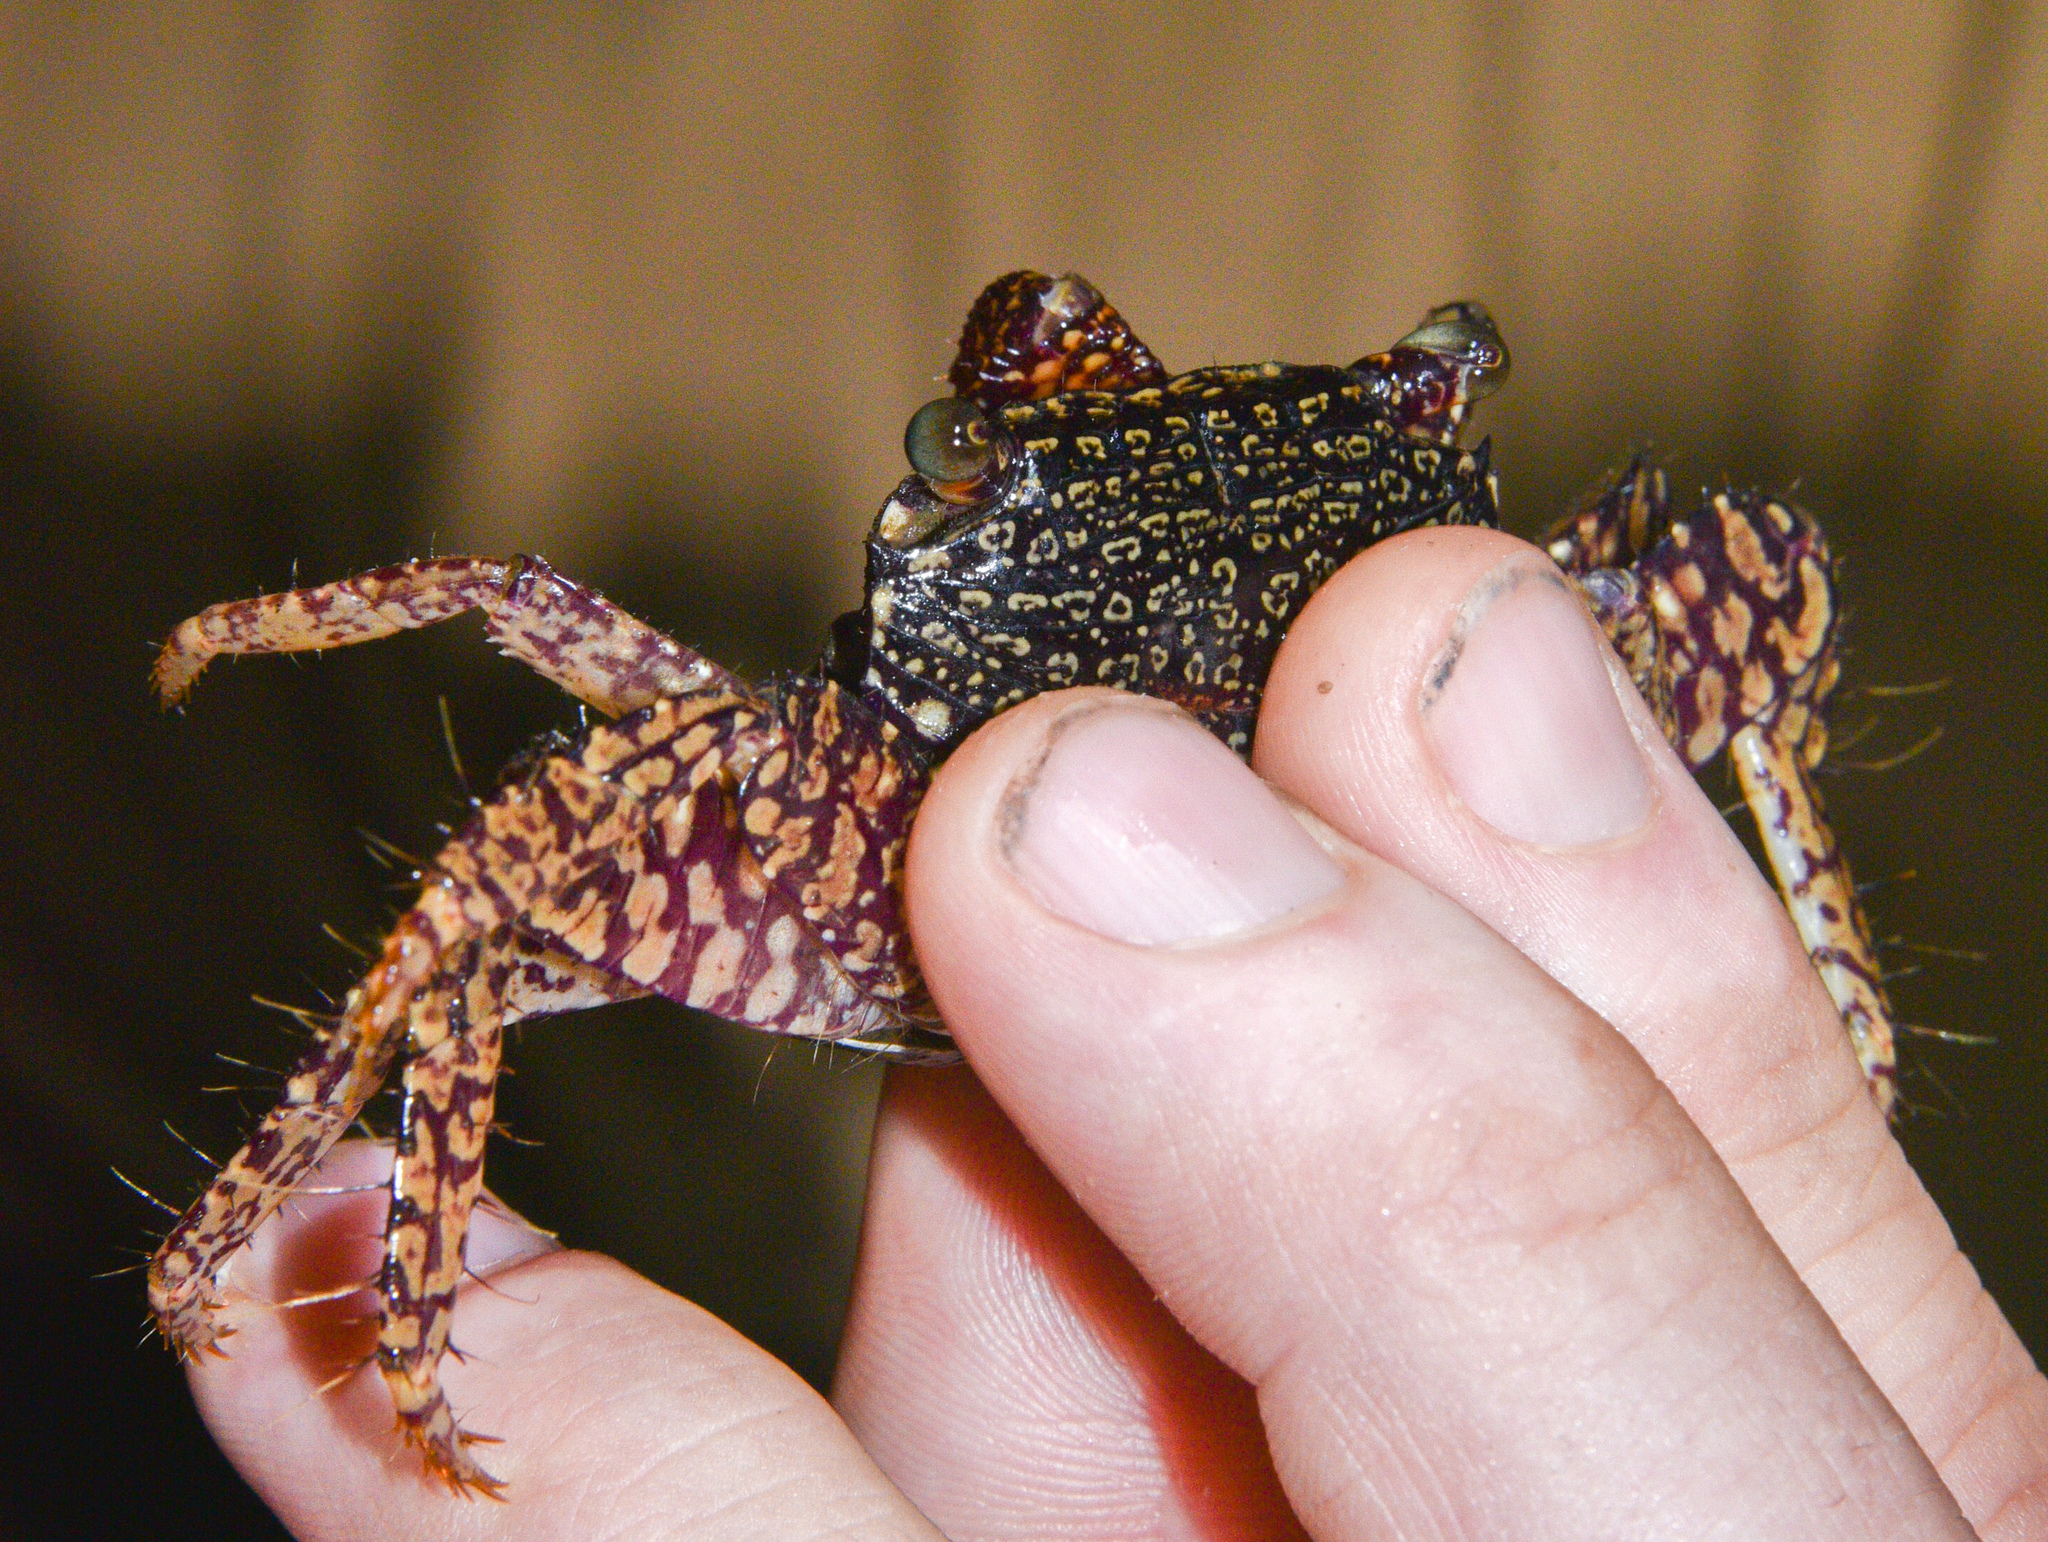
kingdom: Animalia
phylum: Arthropoda
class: Malacostraca
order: Decapoda
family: Grapsidae
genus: Goniopsis
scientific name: Goniopsis pulchra
